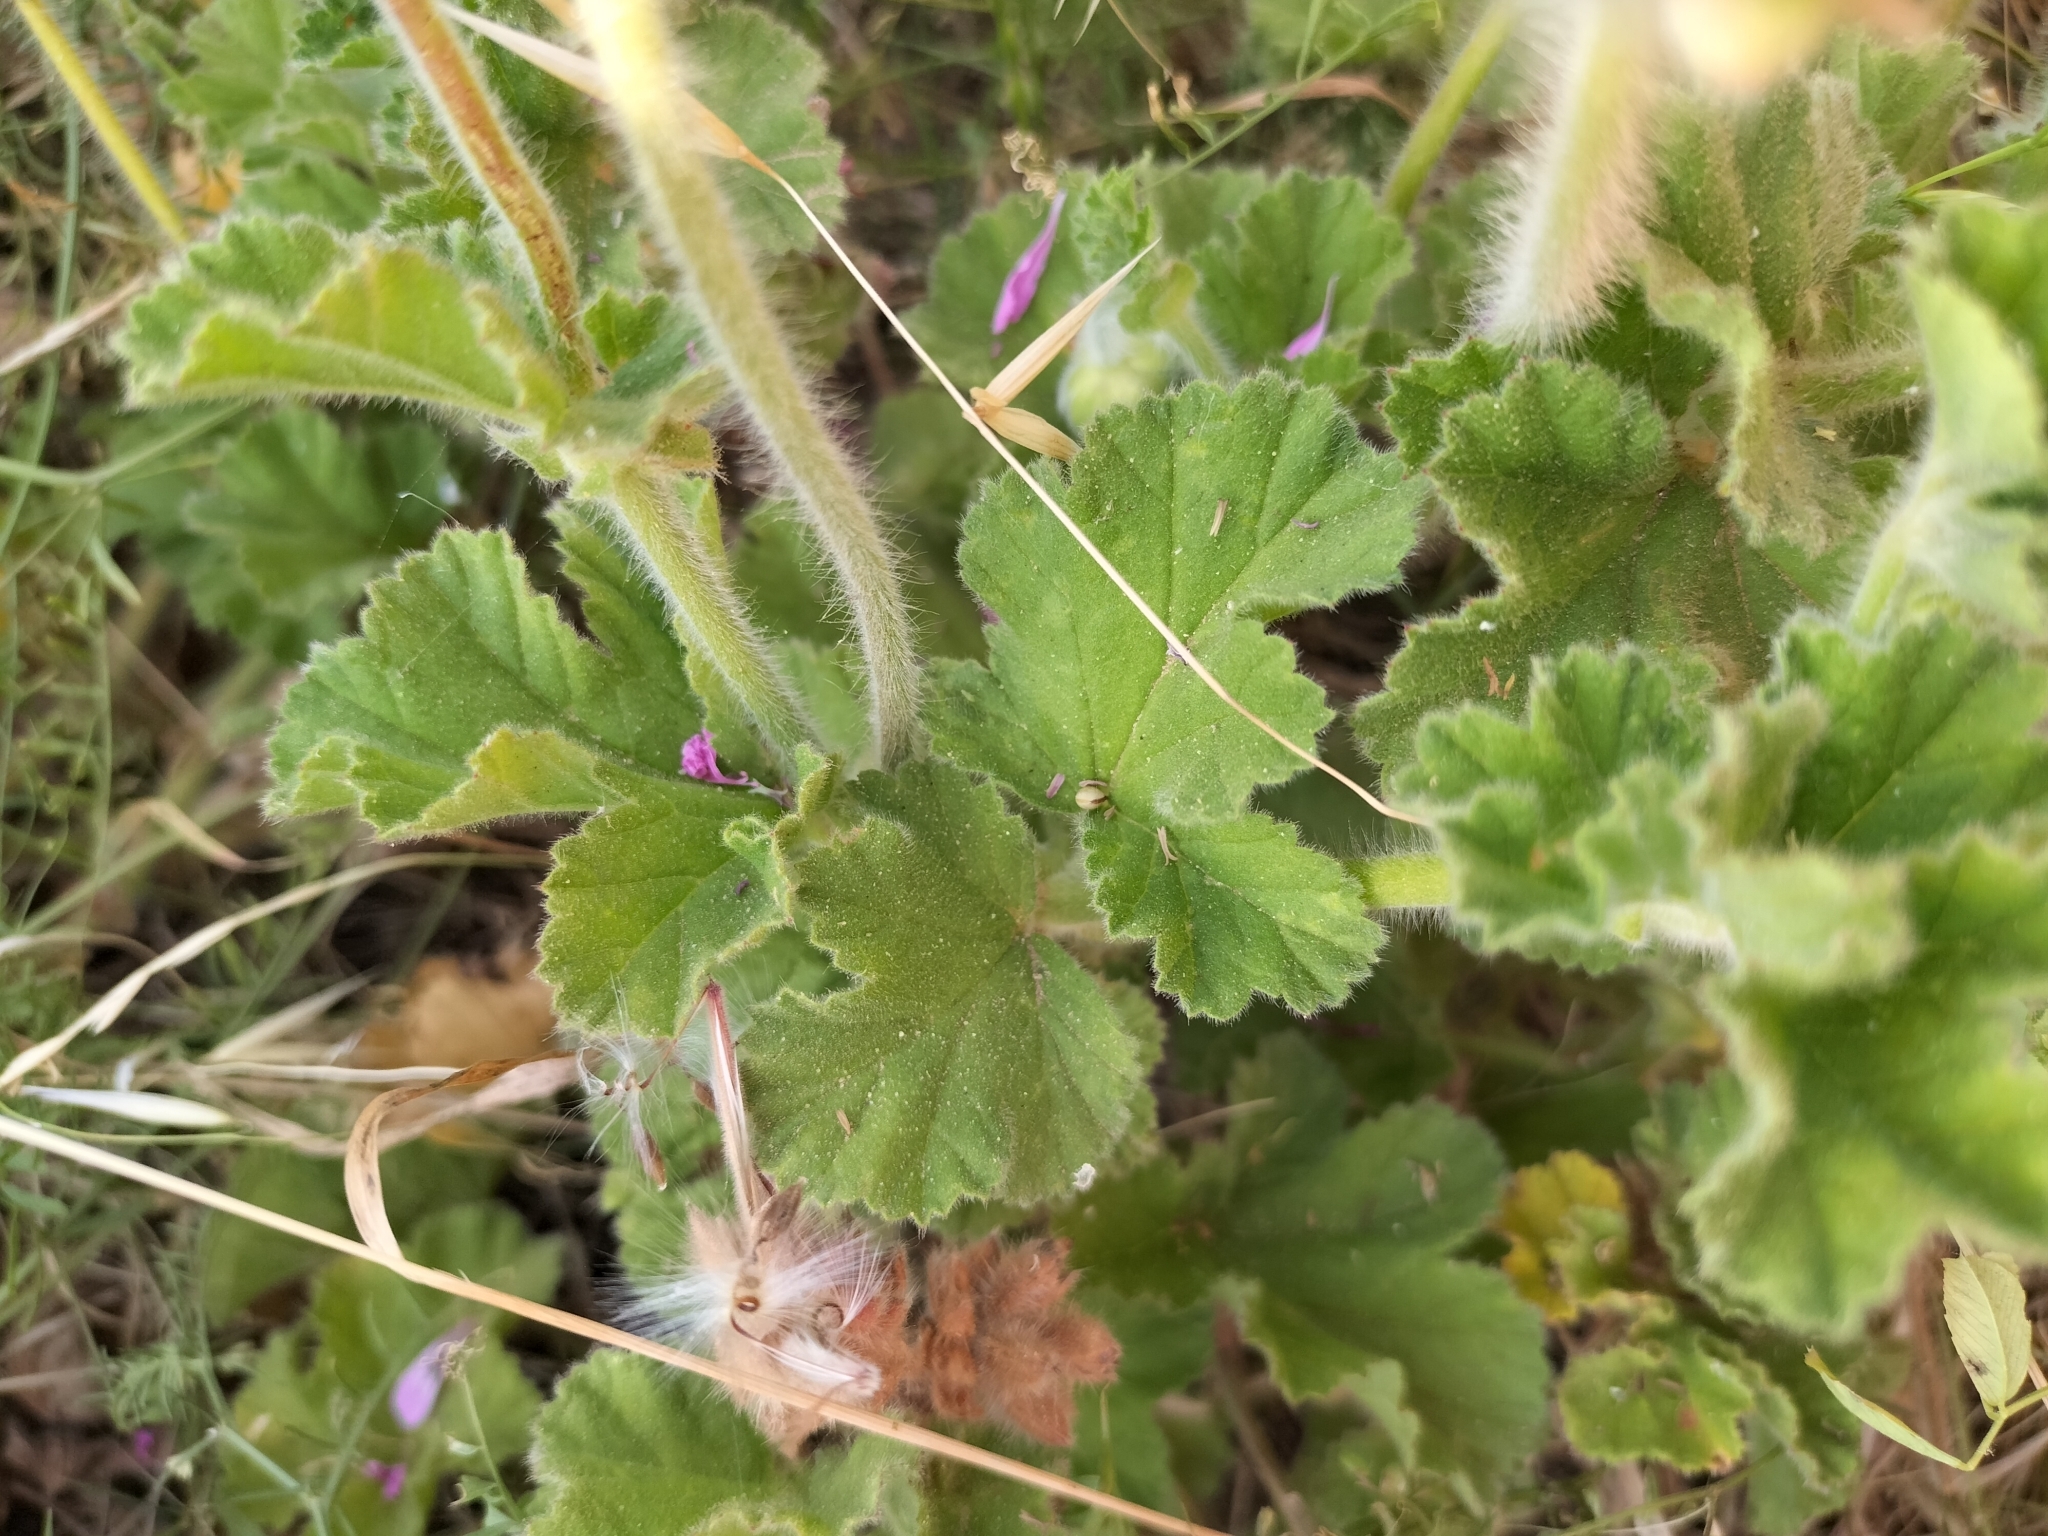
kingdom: Plantae
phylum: Tracheophyta
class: Magnoliopsida
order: Geraniales
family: Geraniaceae
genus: Pelargonium
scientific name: Pelargonium capitatum
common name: Rose scented geranium
